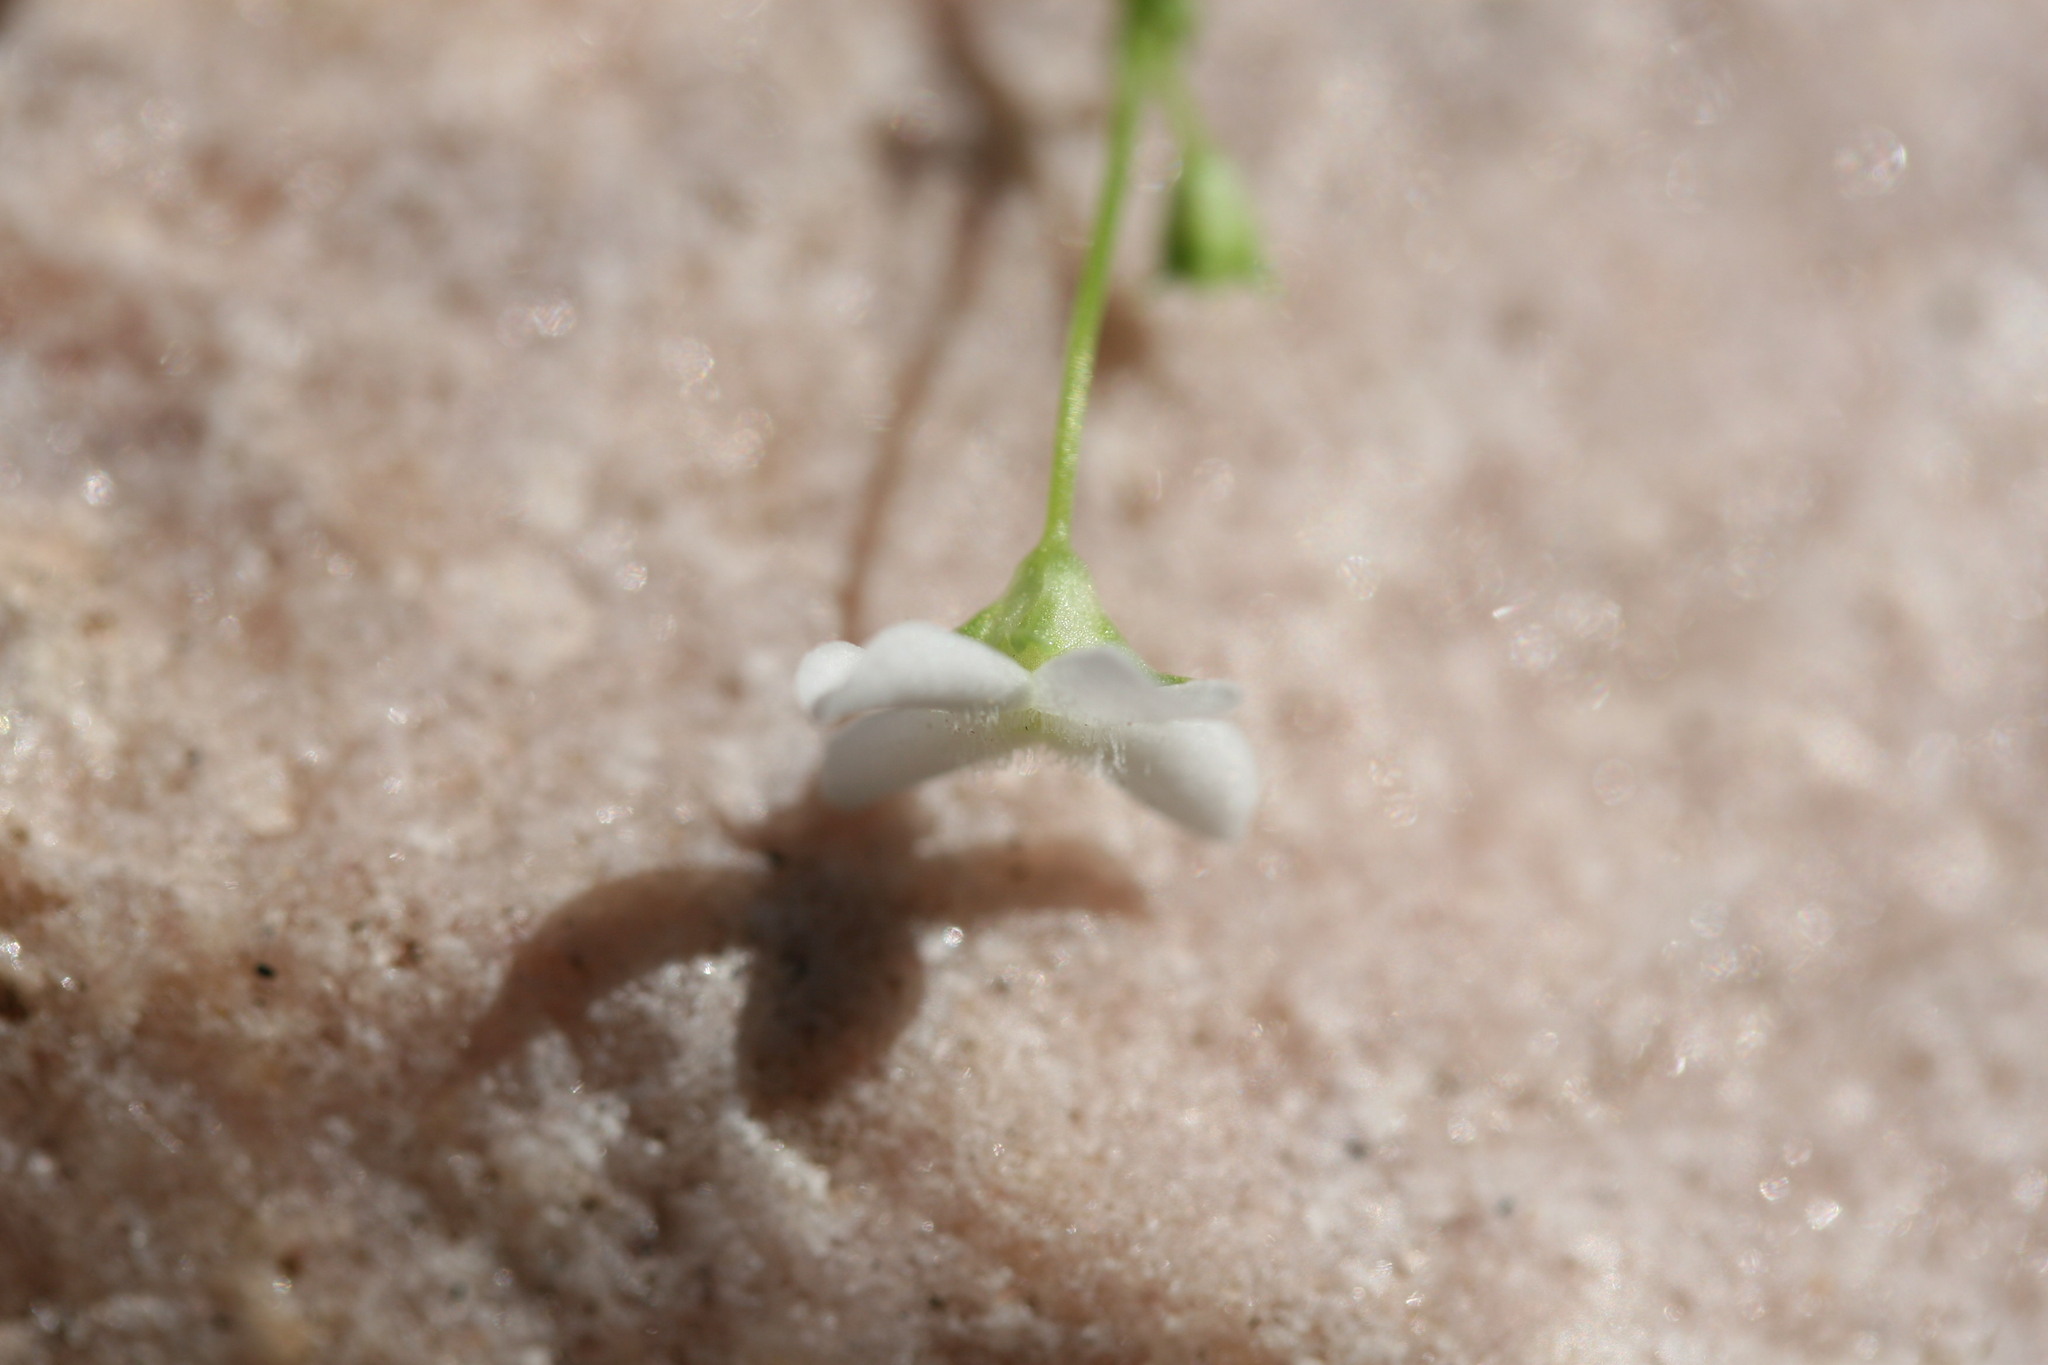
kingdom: Plantae
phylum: Tracheophyta
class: Magnoliopsida
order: Gentianales
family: Loganiaceae
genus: Mitrasacme
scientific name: Mitrasacme nummularia
